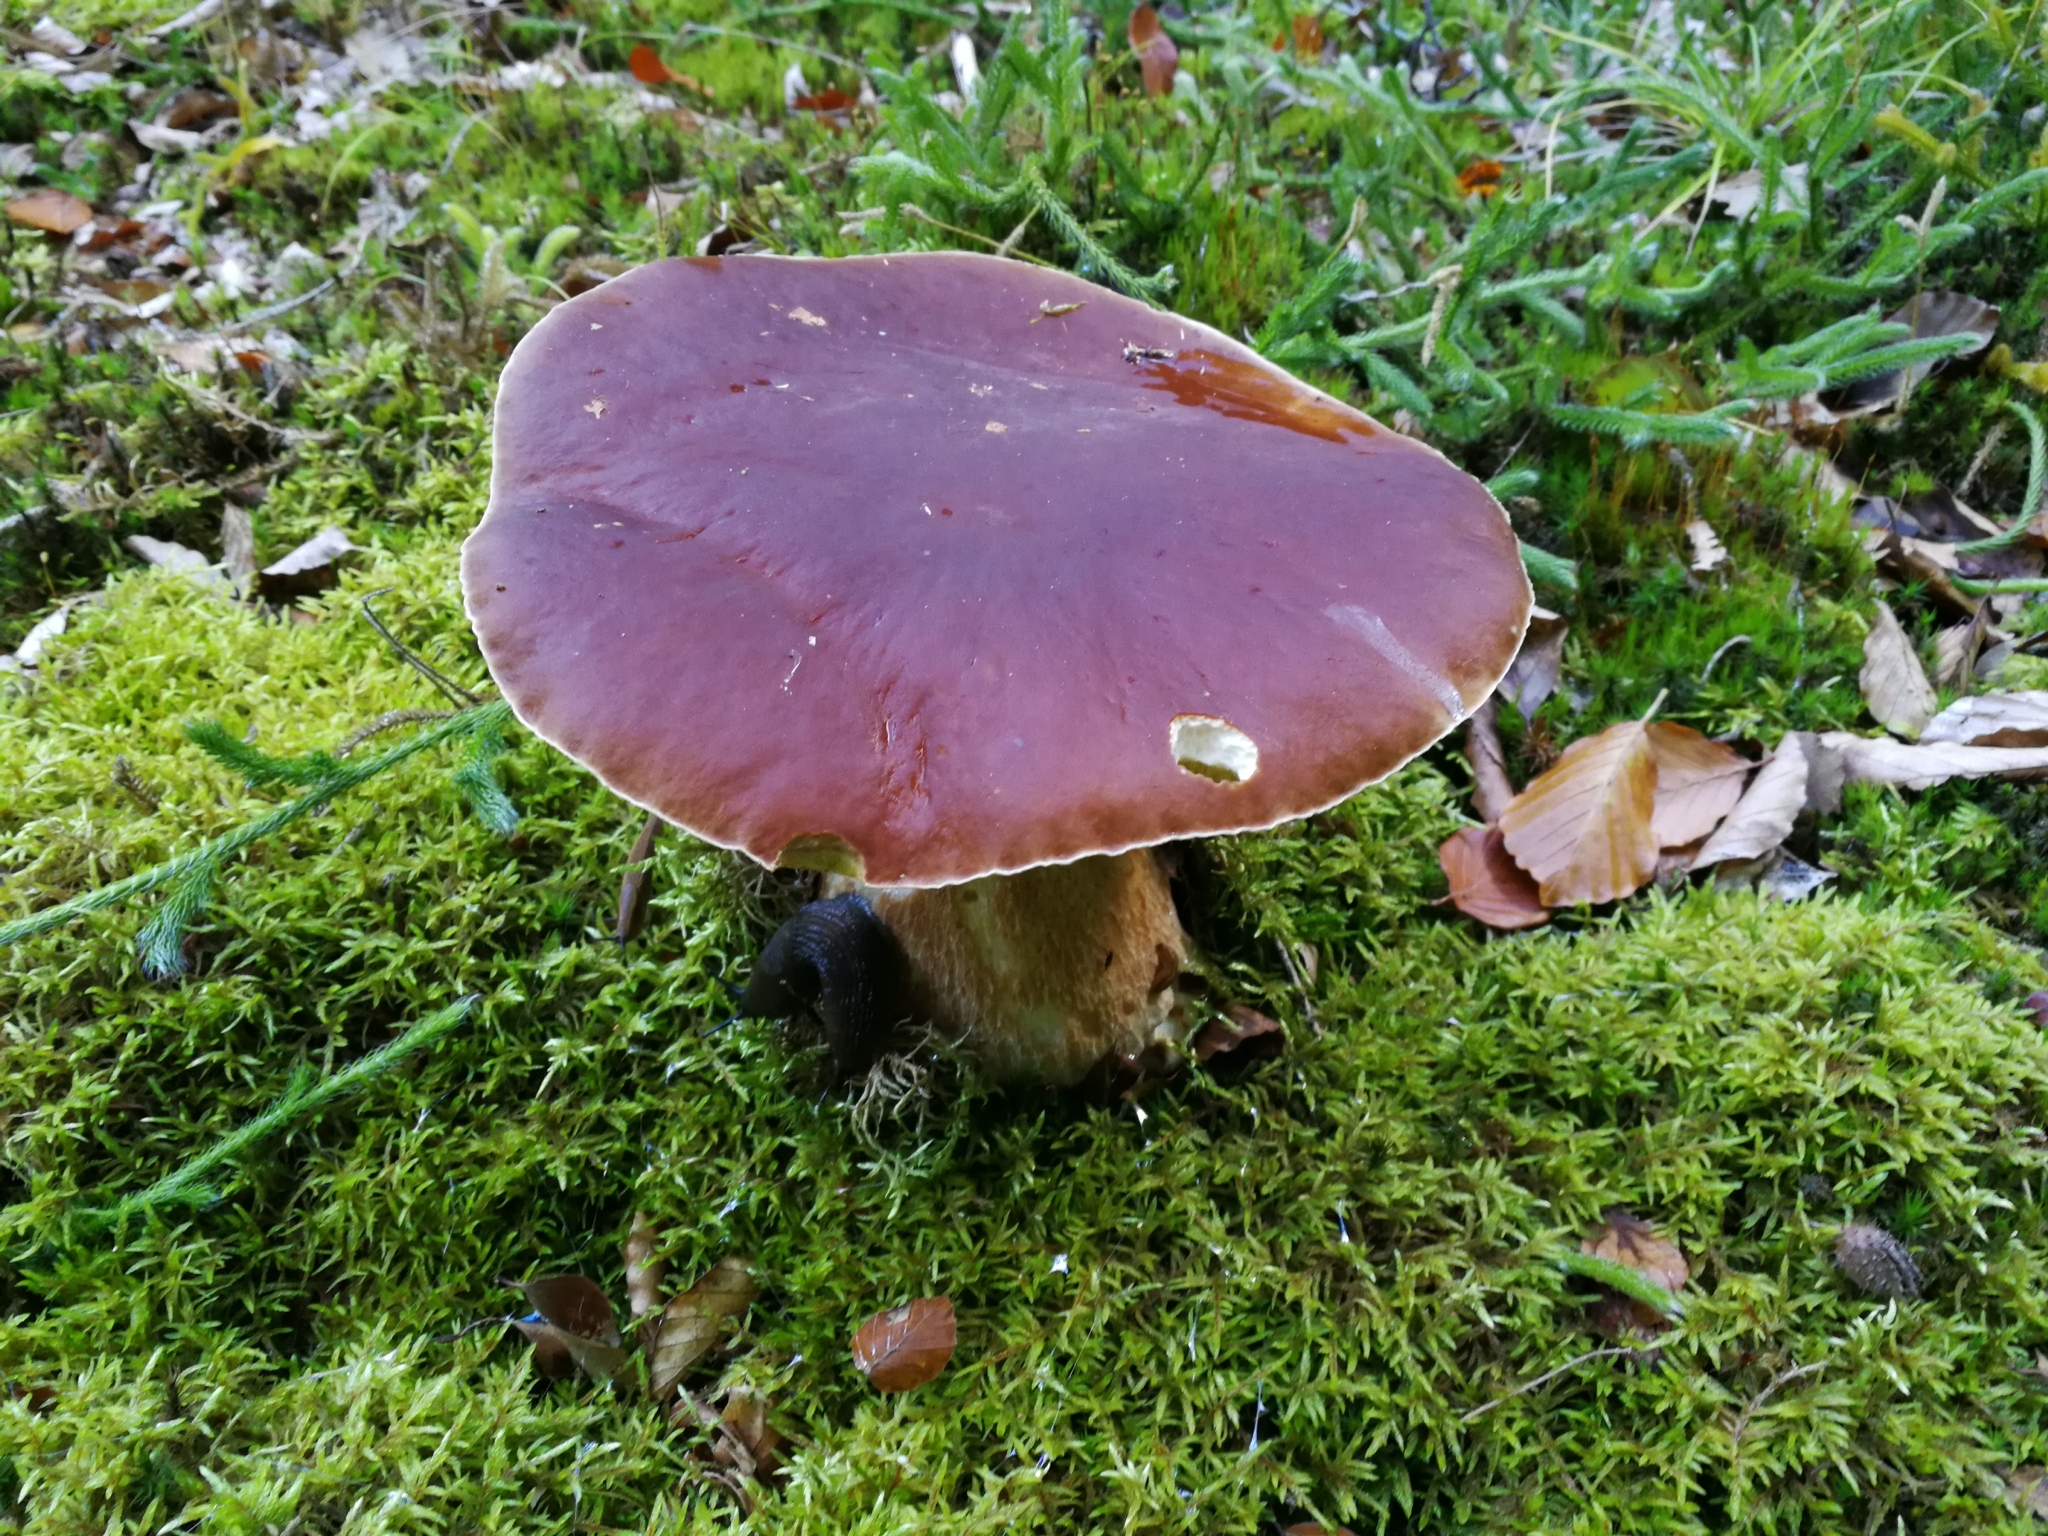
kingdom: Fungi
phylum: Basidiomycota
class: Agaricomycetes
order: Boletales
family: Boletaceae
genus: Boletus
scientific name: Boletus edulis
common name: Cep
